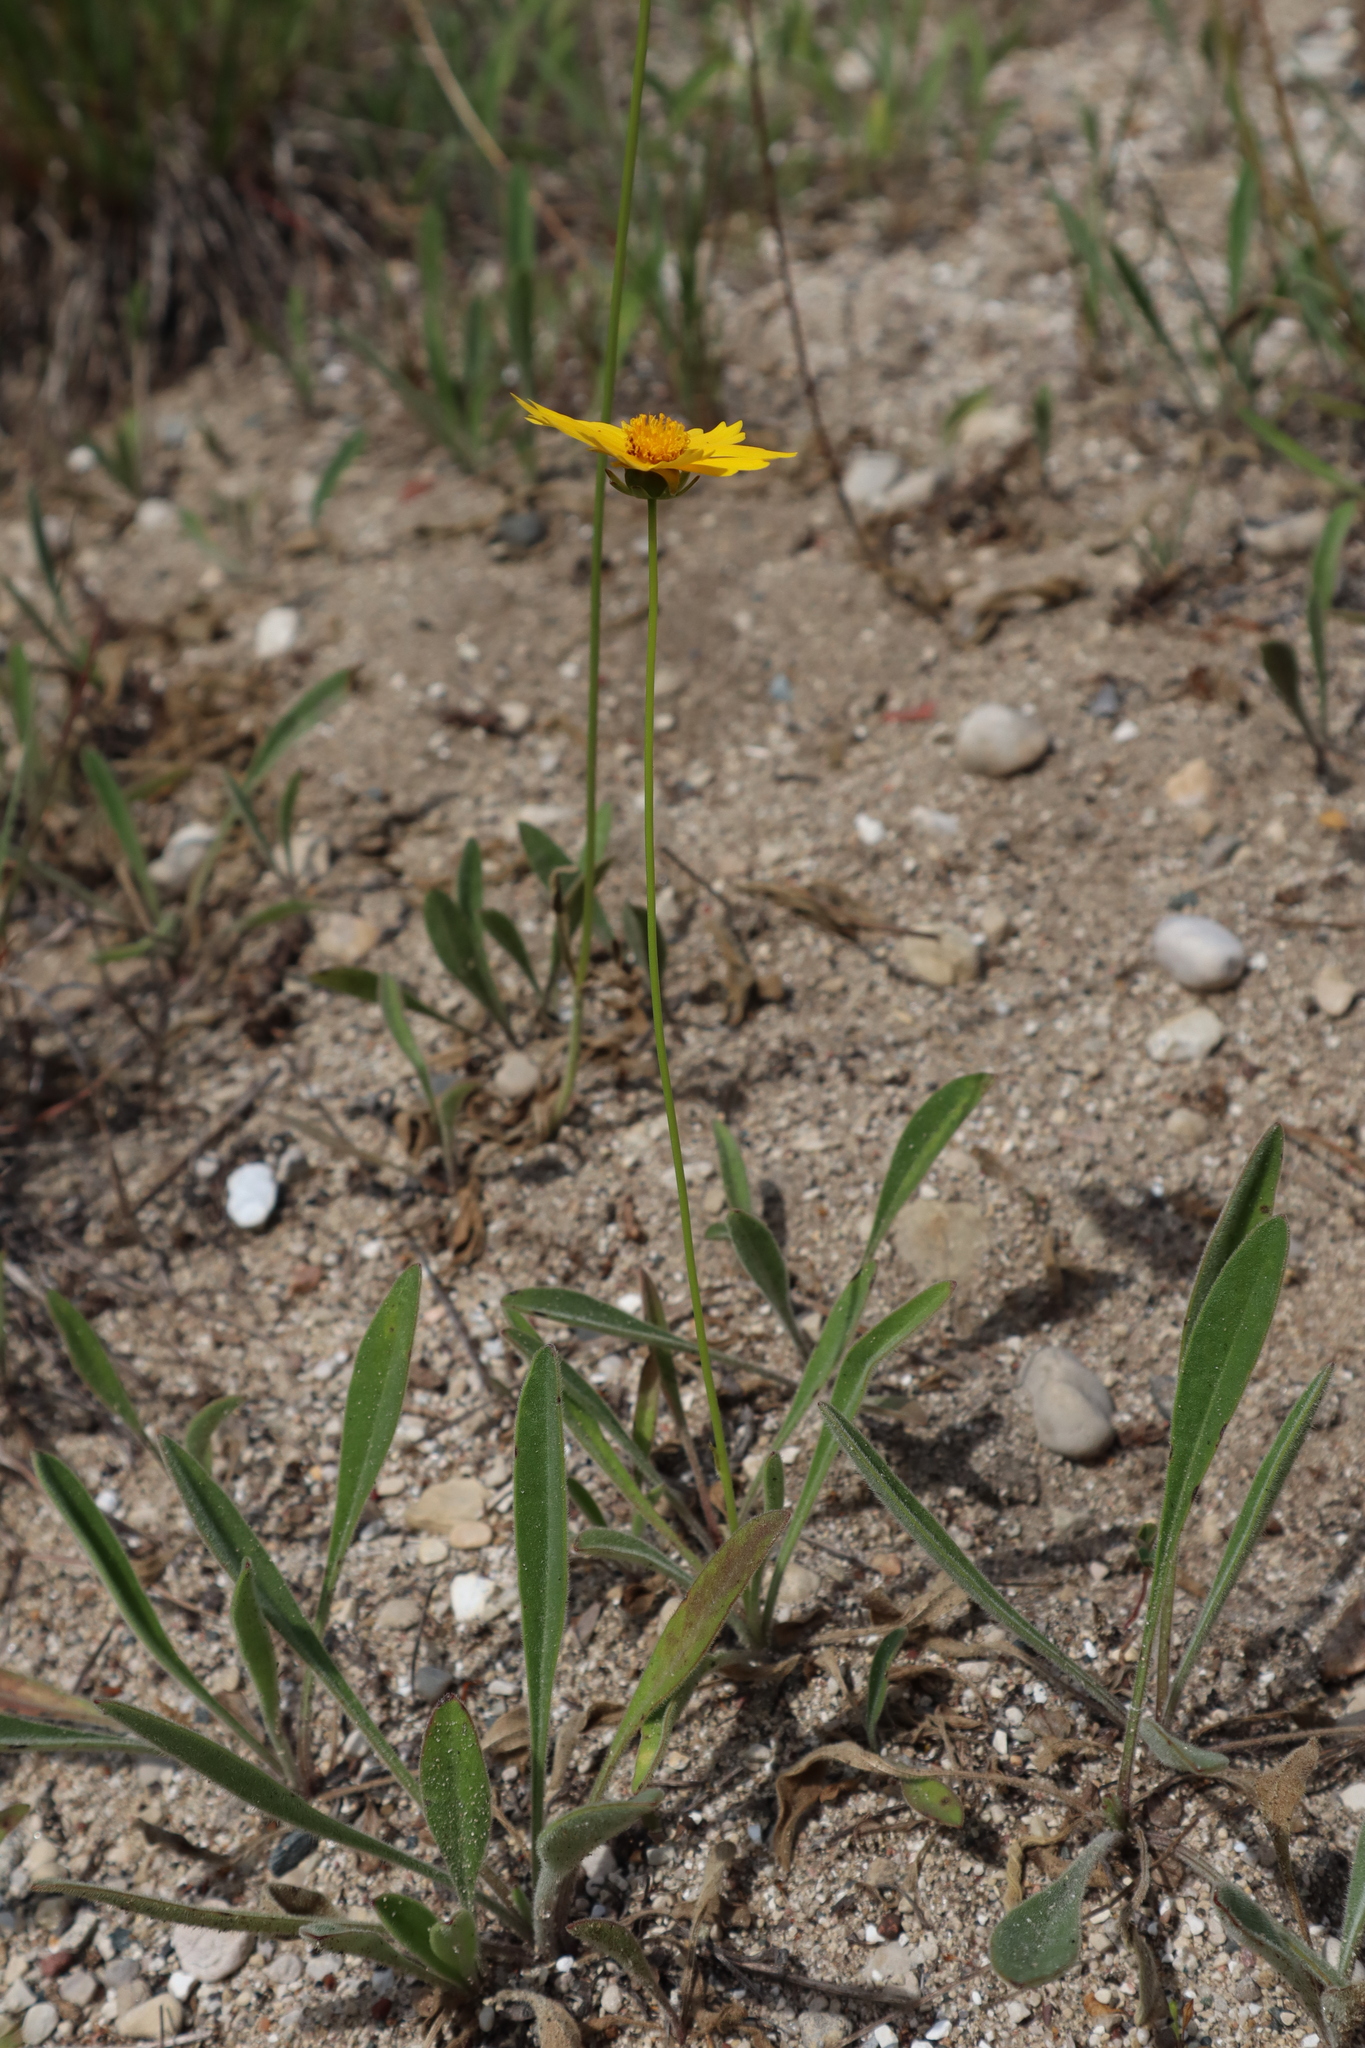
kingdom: Plantae
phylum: Tracheophyta
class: Magnoliopsida
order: Asterales
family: Asteraceae
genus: Coreopsis
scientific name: Coreopsis lanceolata
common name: Garden coreopsis
